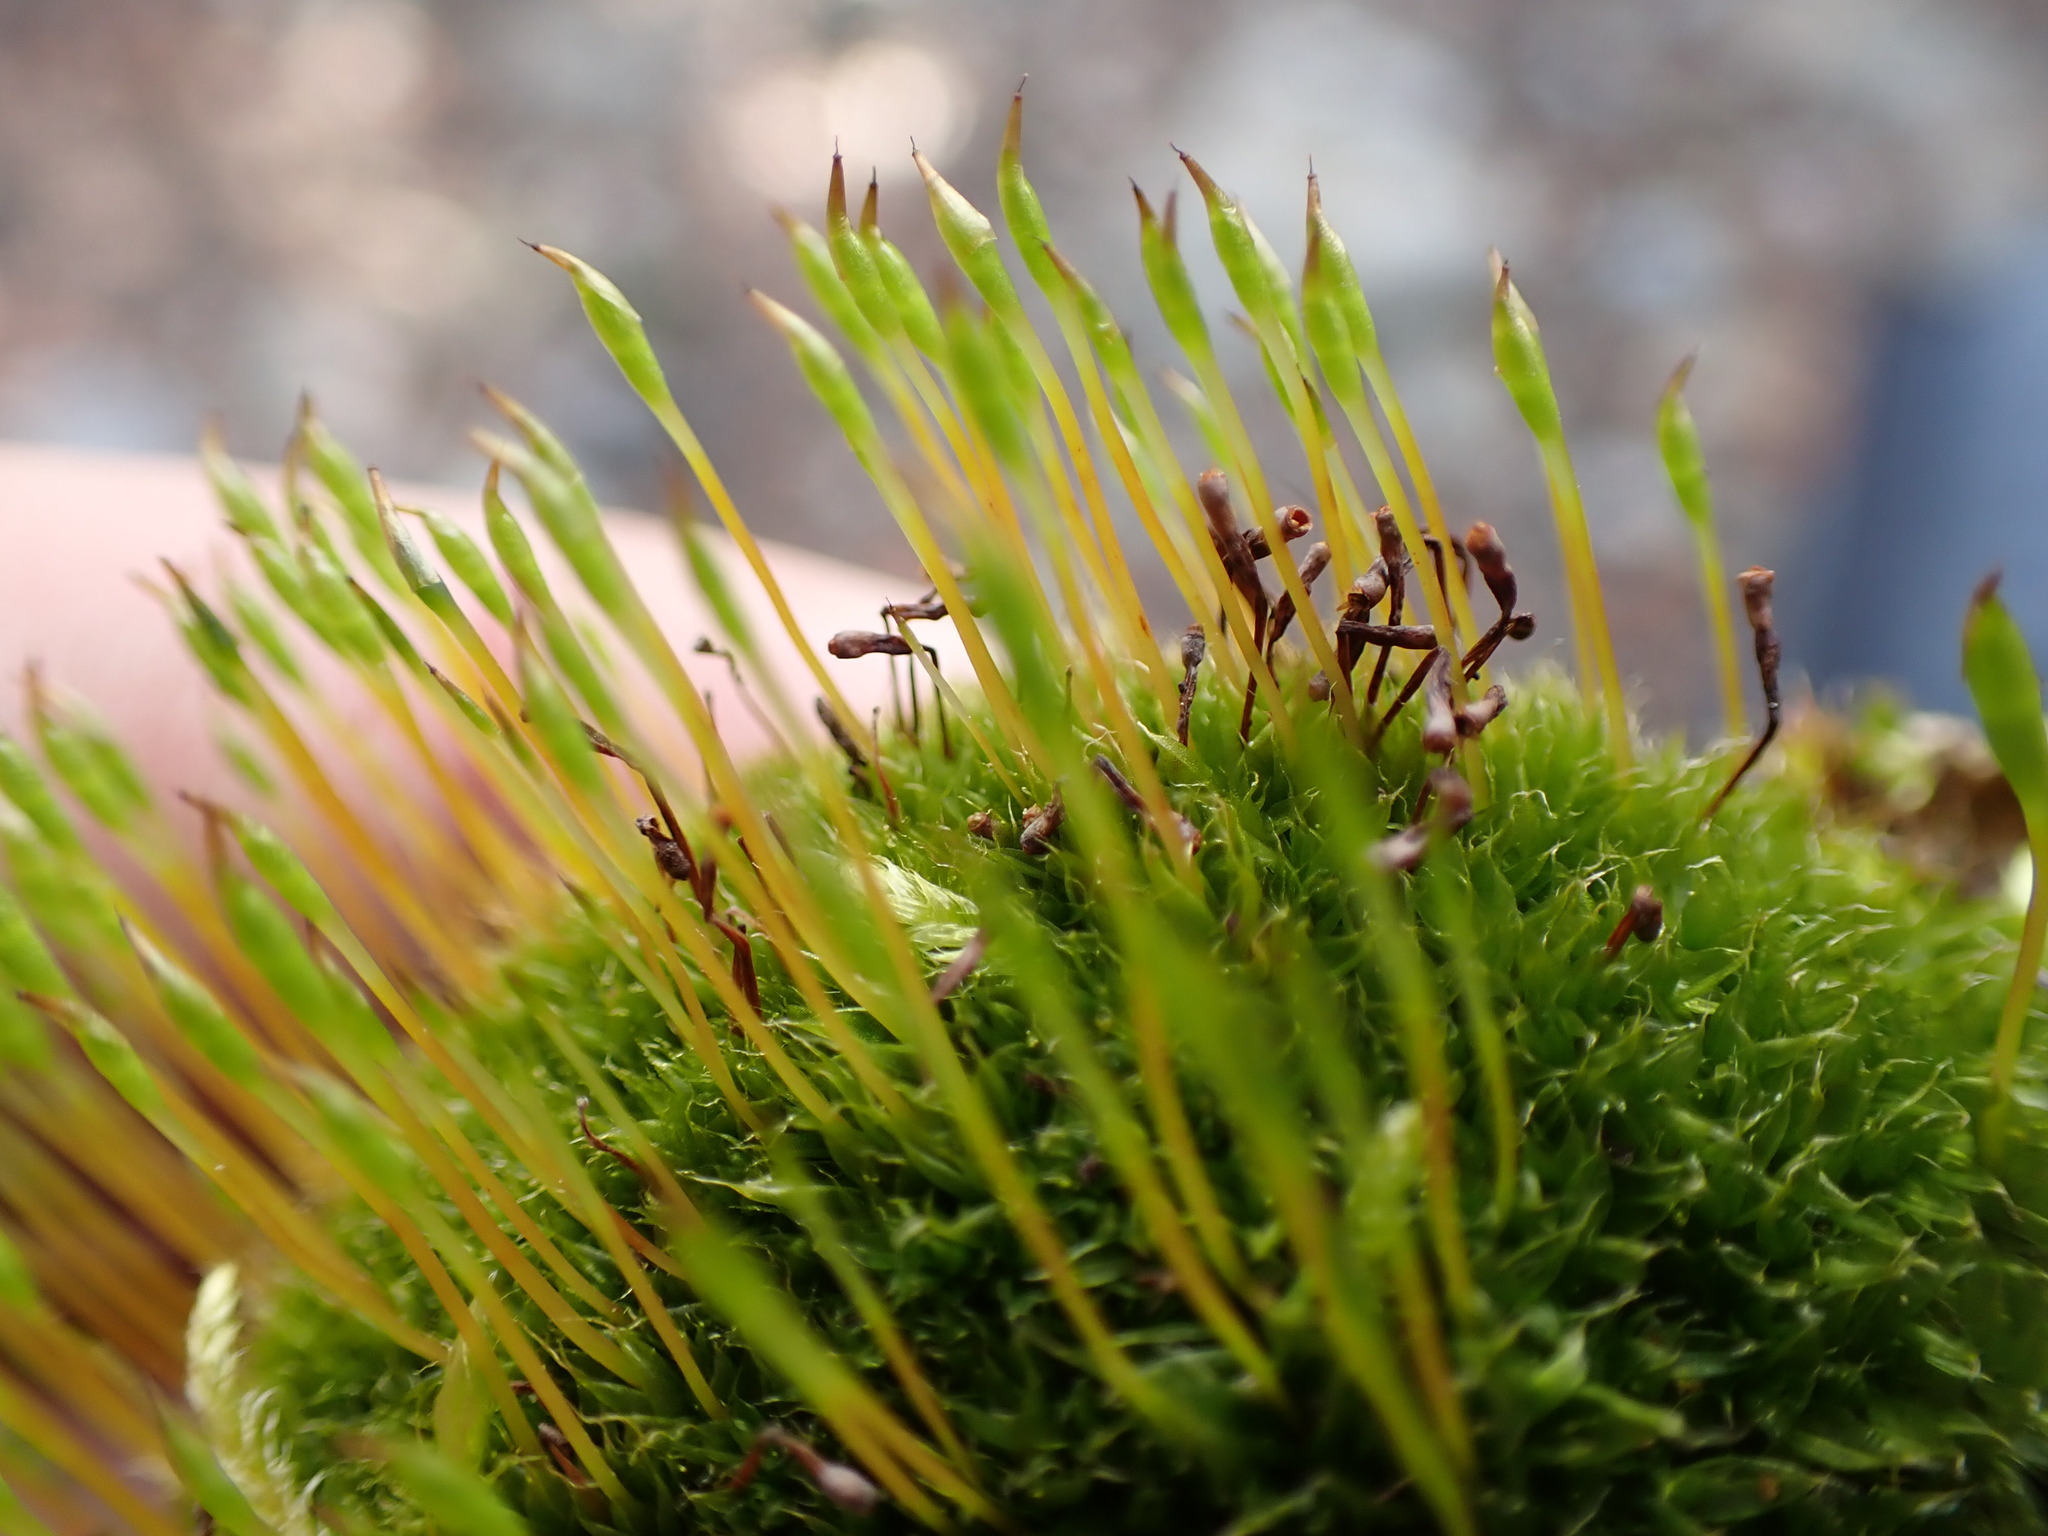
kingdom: Plantae
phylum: Bryophyta
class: Bryopsida
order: Splachnales
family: Splachnaceae
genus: Tetraplodon
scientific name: Tetraplodon mnioides
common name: Entire-leaved nitrogen moss
